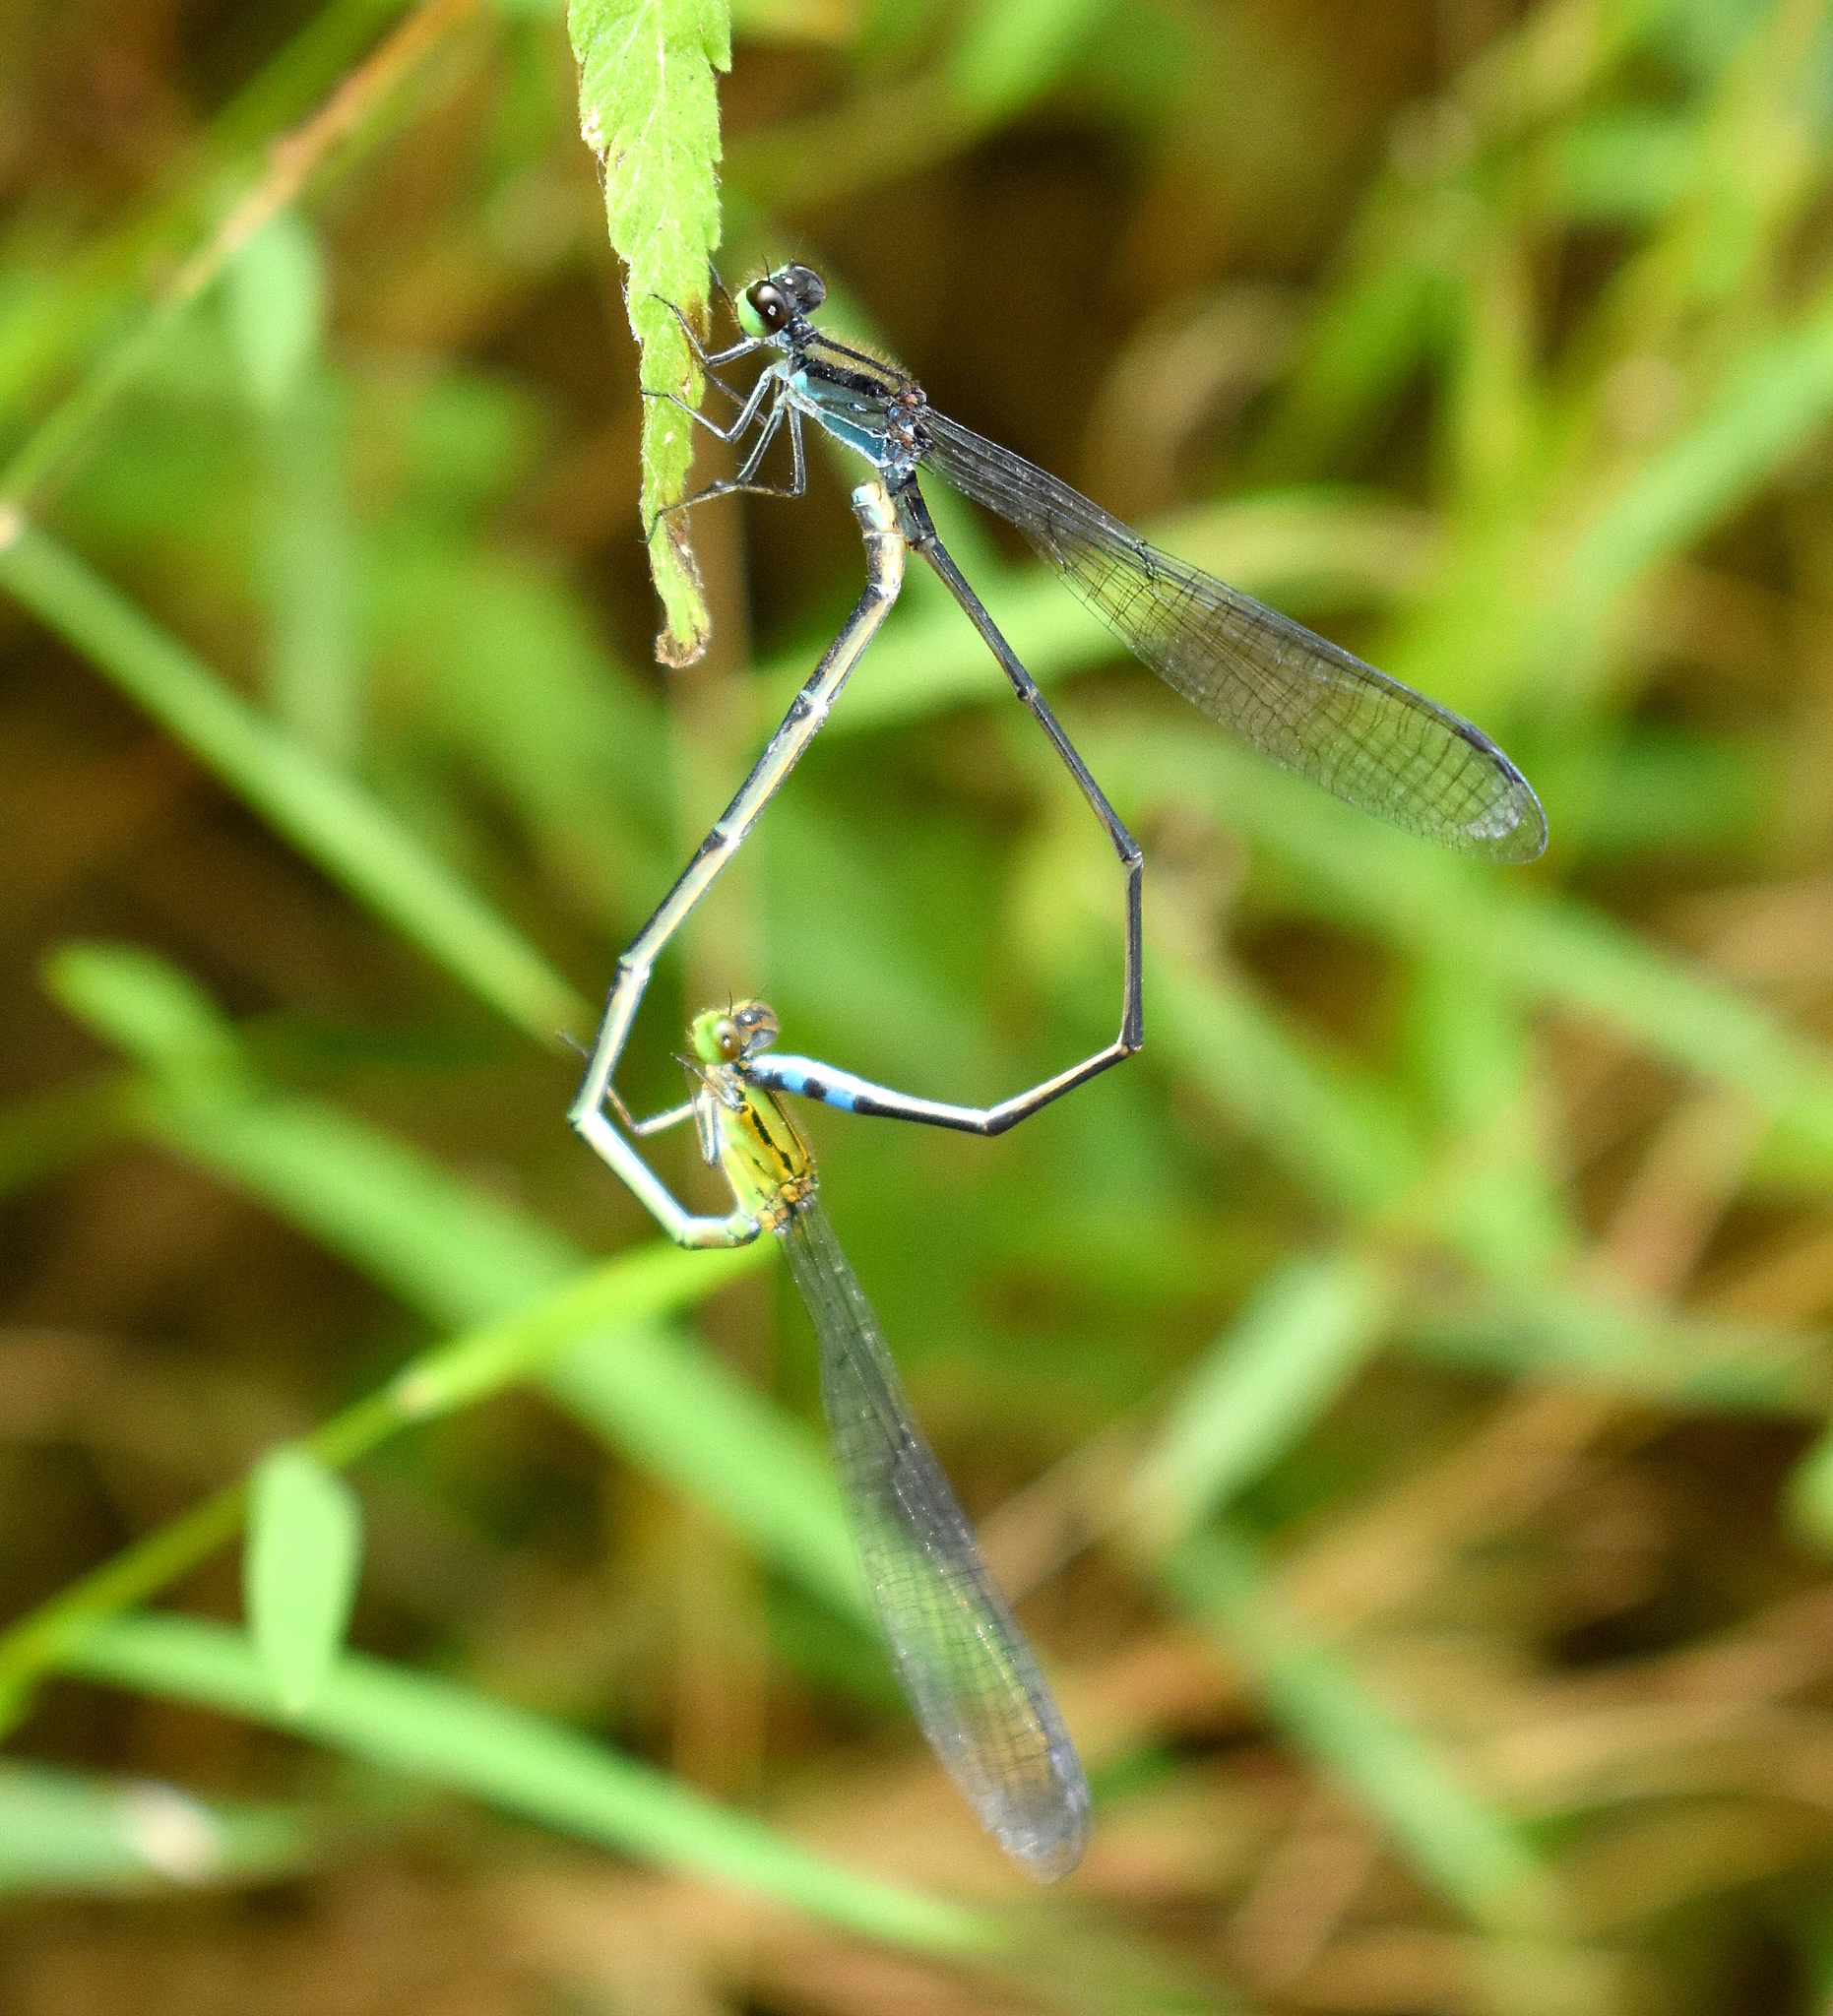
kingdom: Animalia
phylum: Arthropoda
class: Insecta
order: Odonata
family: Coenagrionidae
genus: Pseudagrion
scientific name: Pseudagrion indicum
